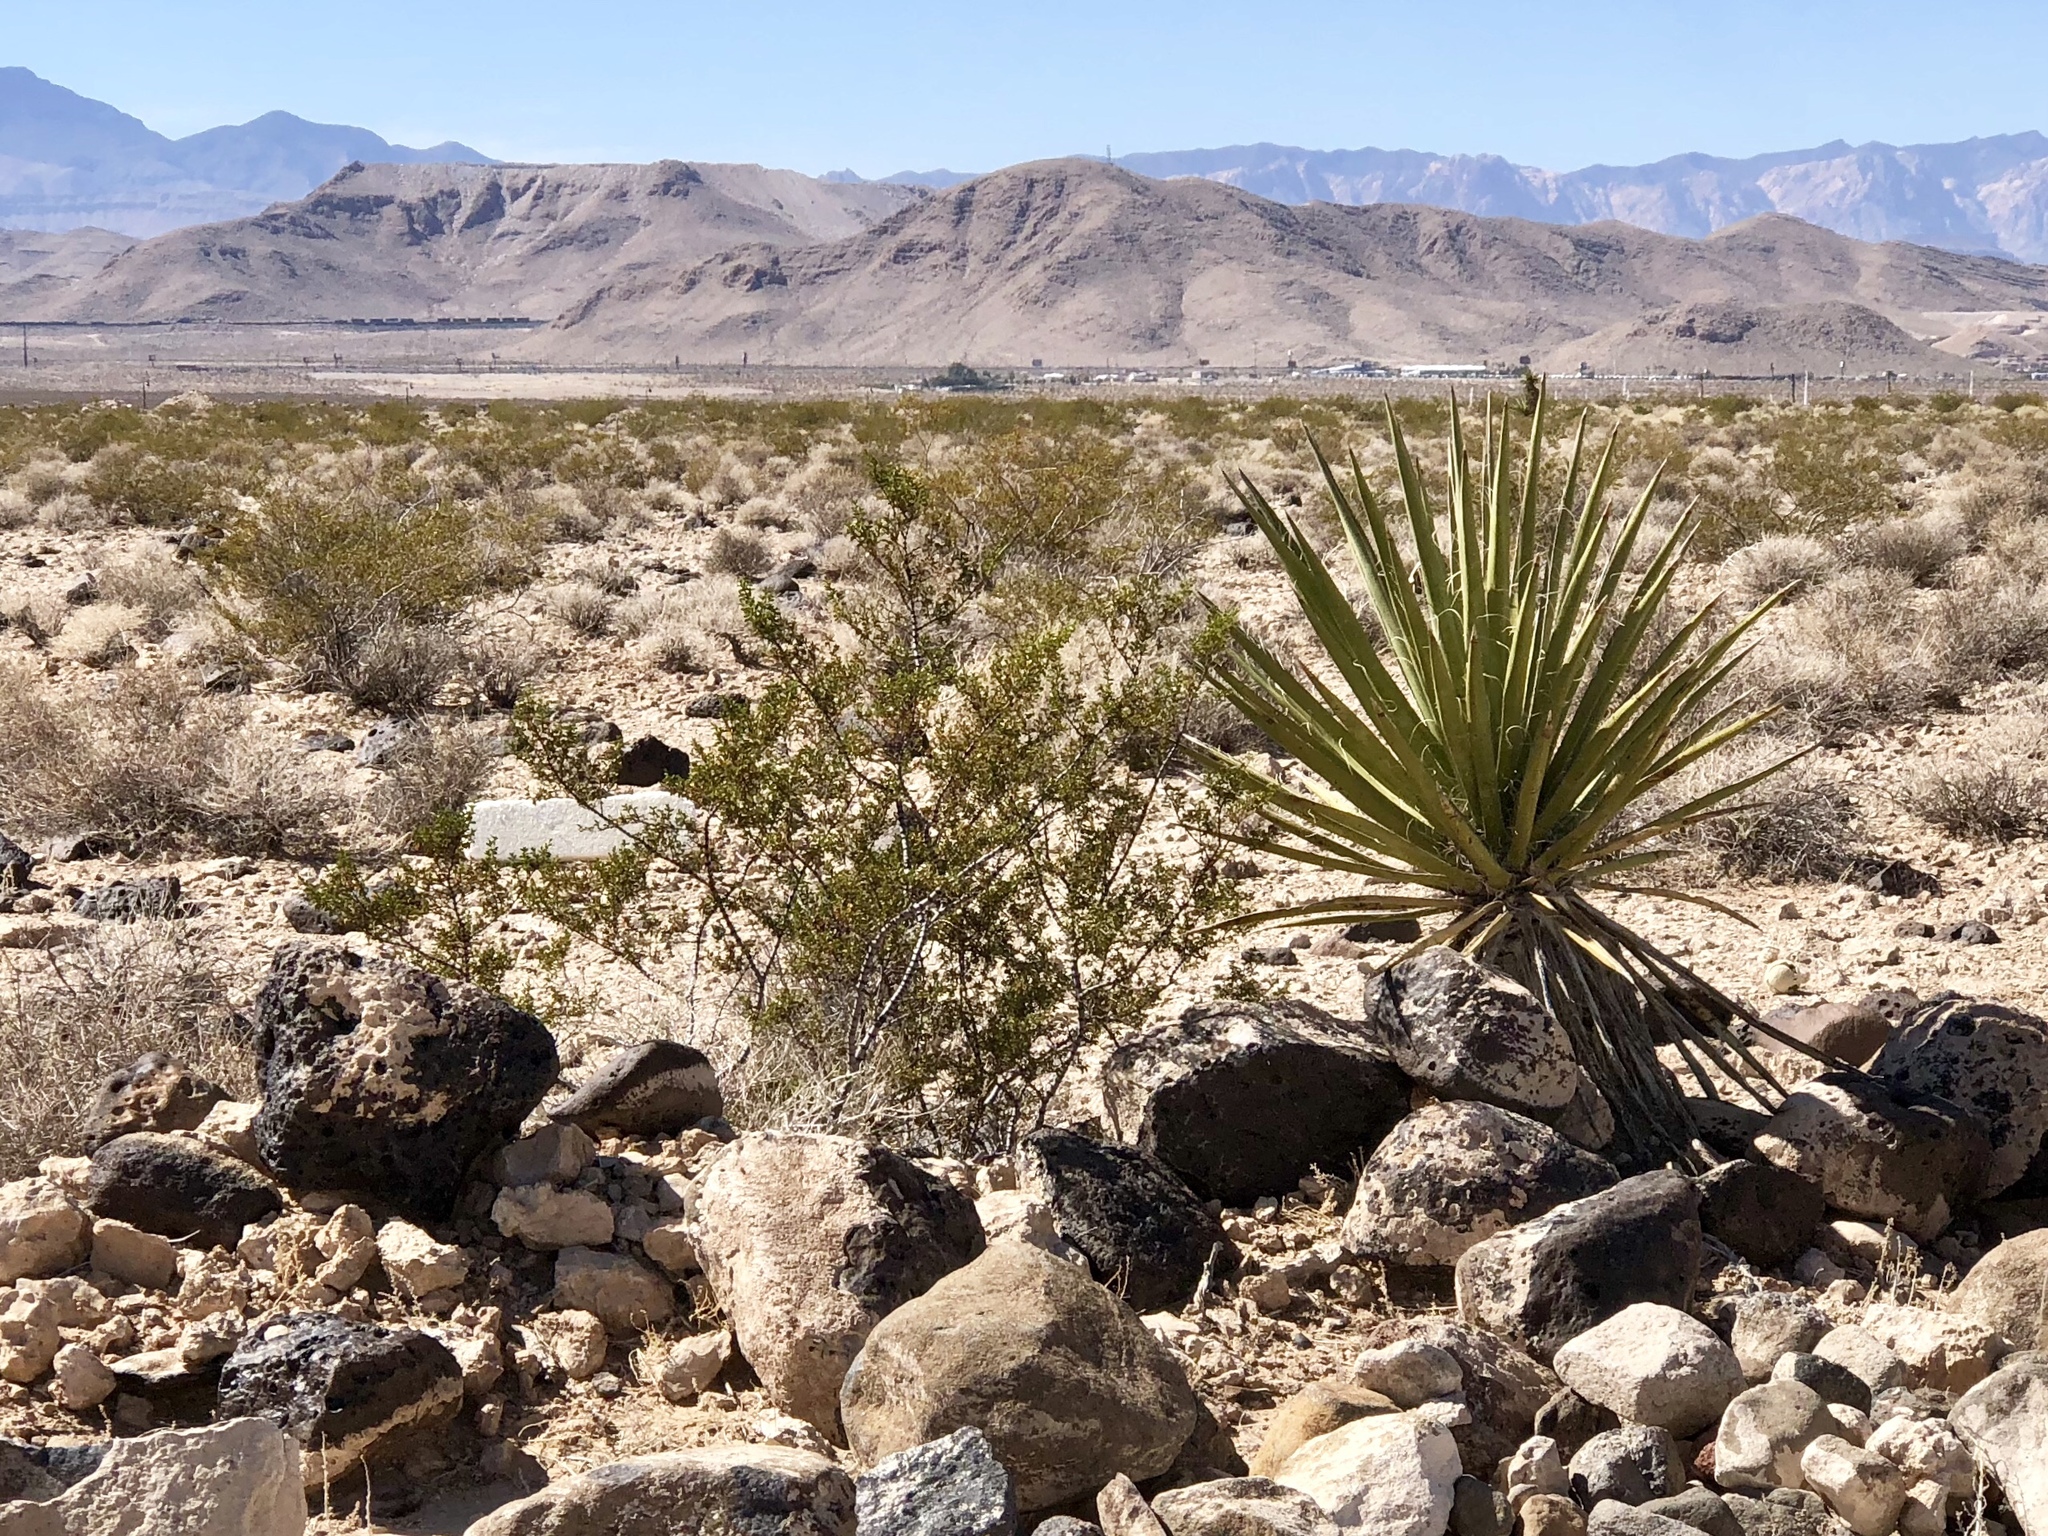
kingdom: Plantae
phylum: Tracheophyta
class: Magnoliopsida
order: Zygophyllales
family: Zygophyllaceae
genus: Larrea
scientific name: Larrea tridentata
